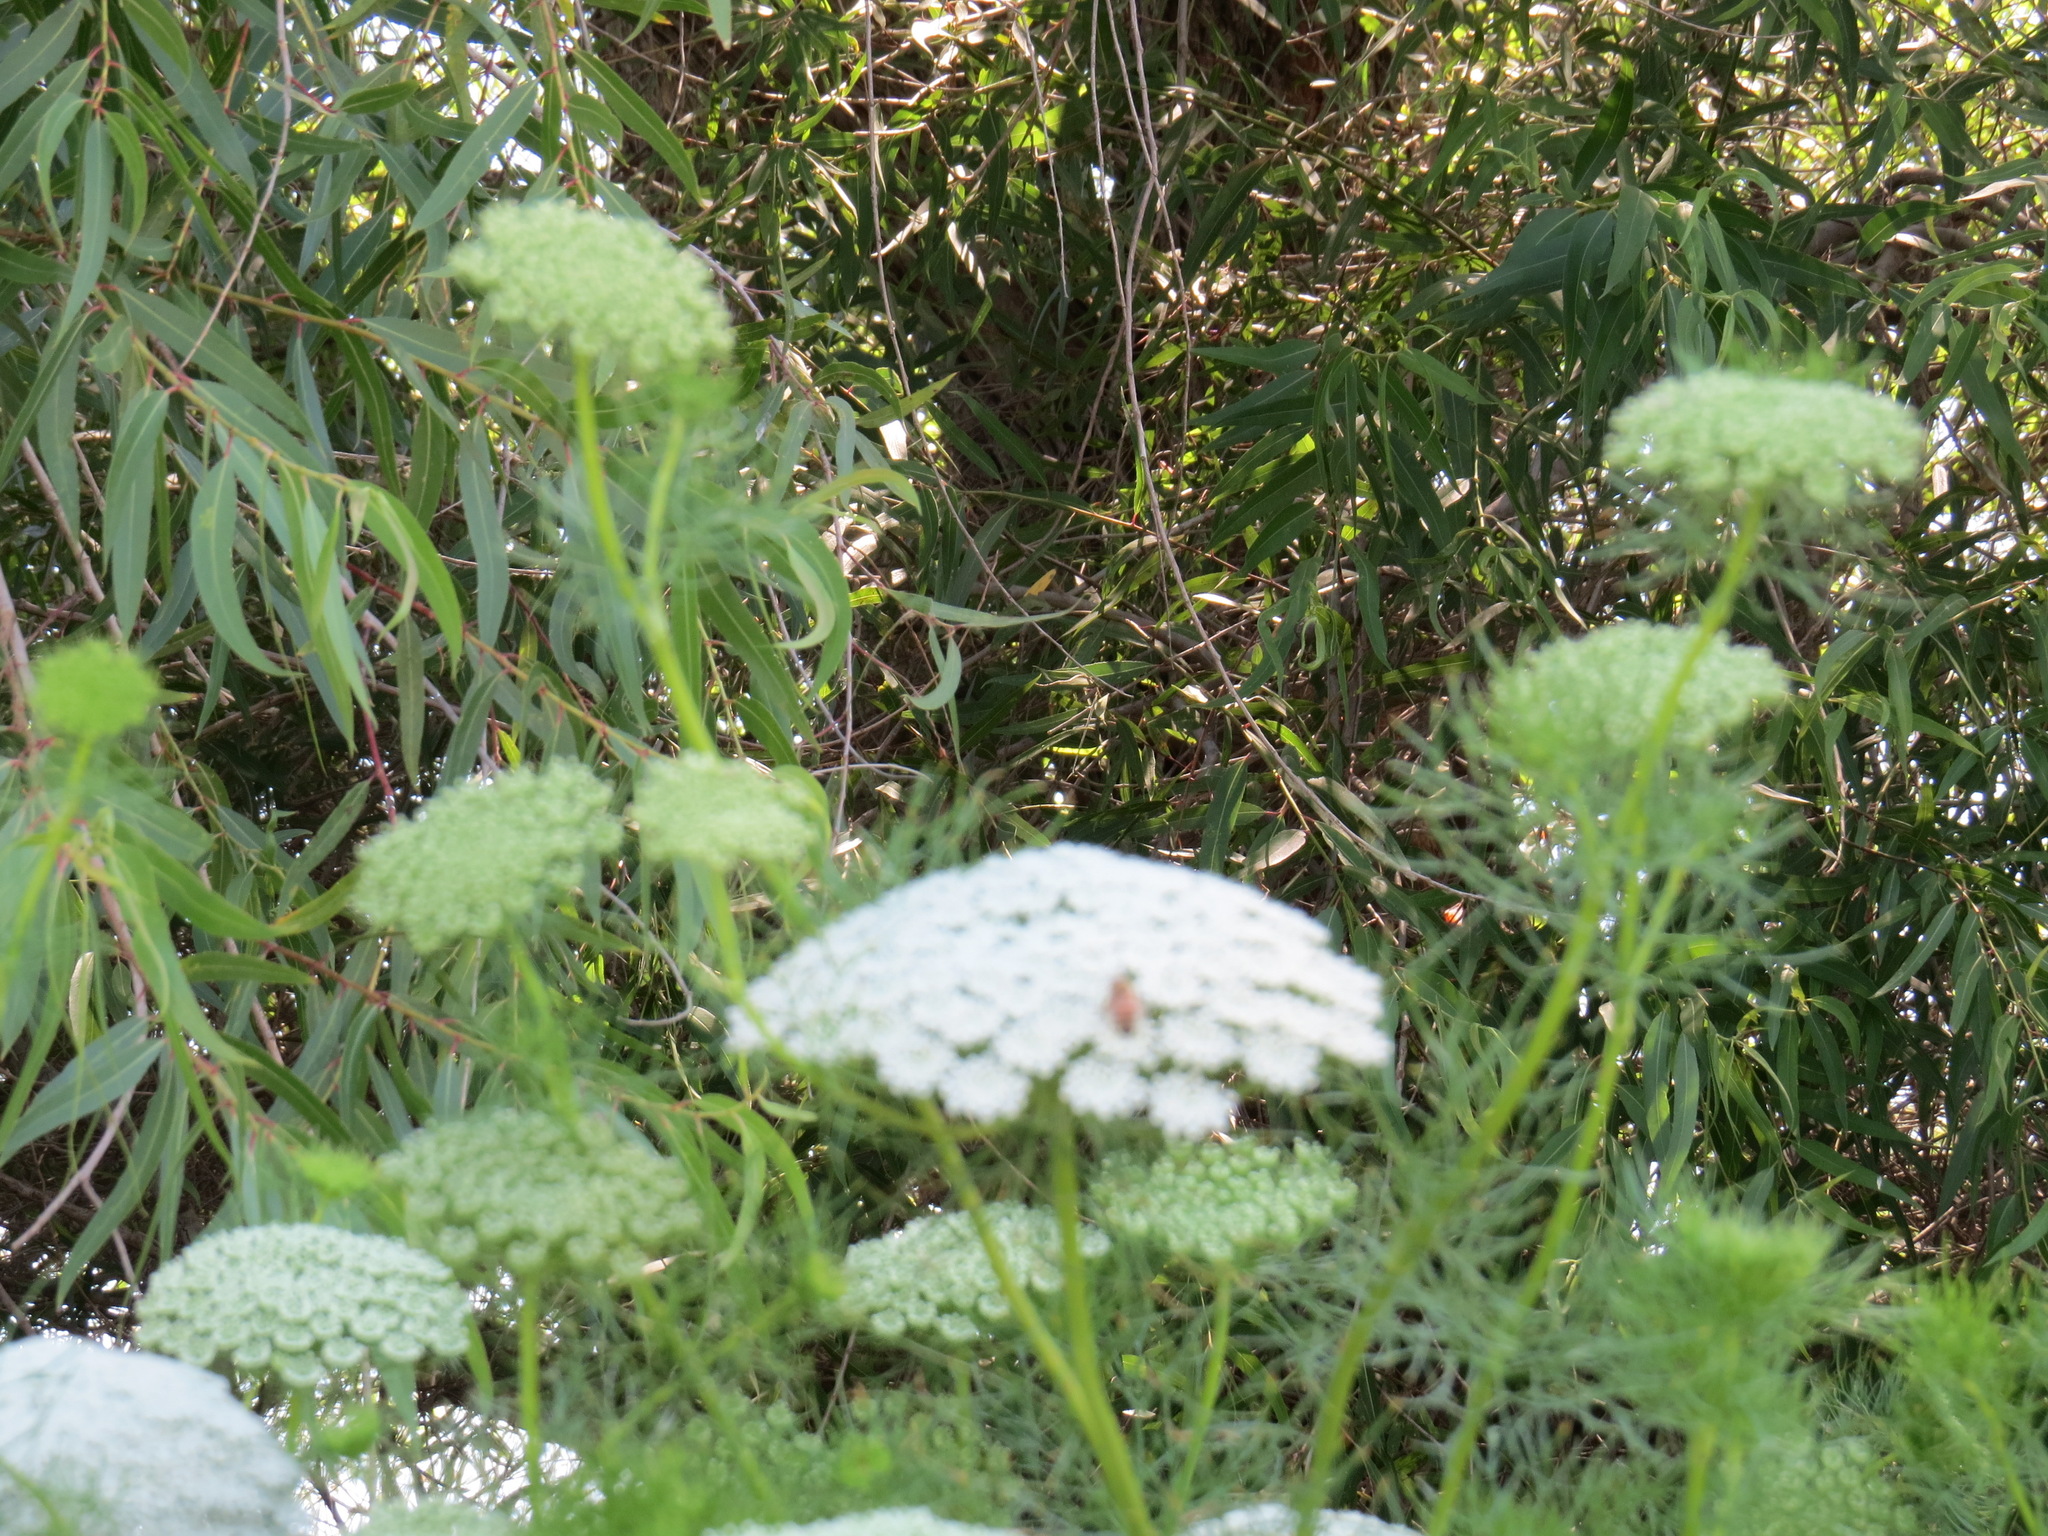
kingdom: Animalia
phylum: Arthropoda
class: Insecta
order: Hymenoptera
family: Apidae
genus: Apis
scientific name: Apis mellifera
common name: Honey bee
